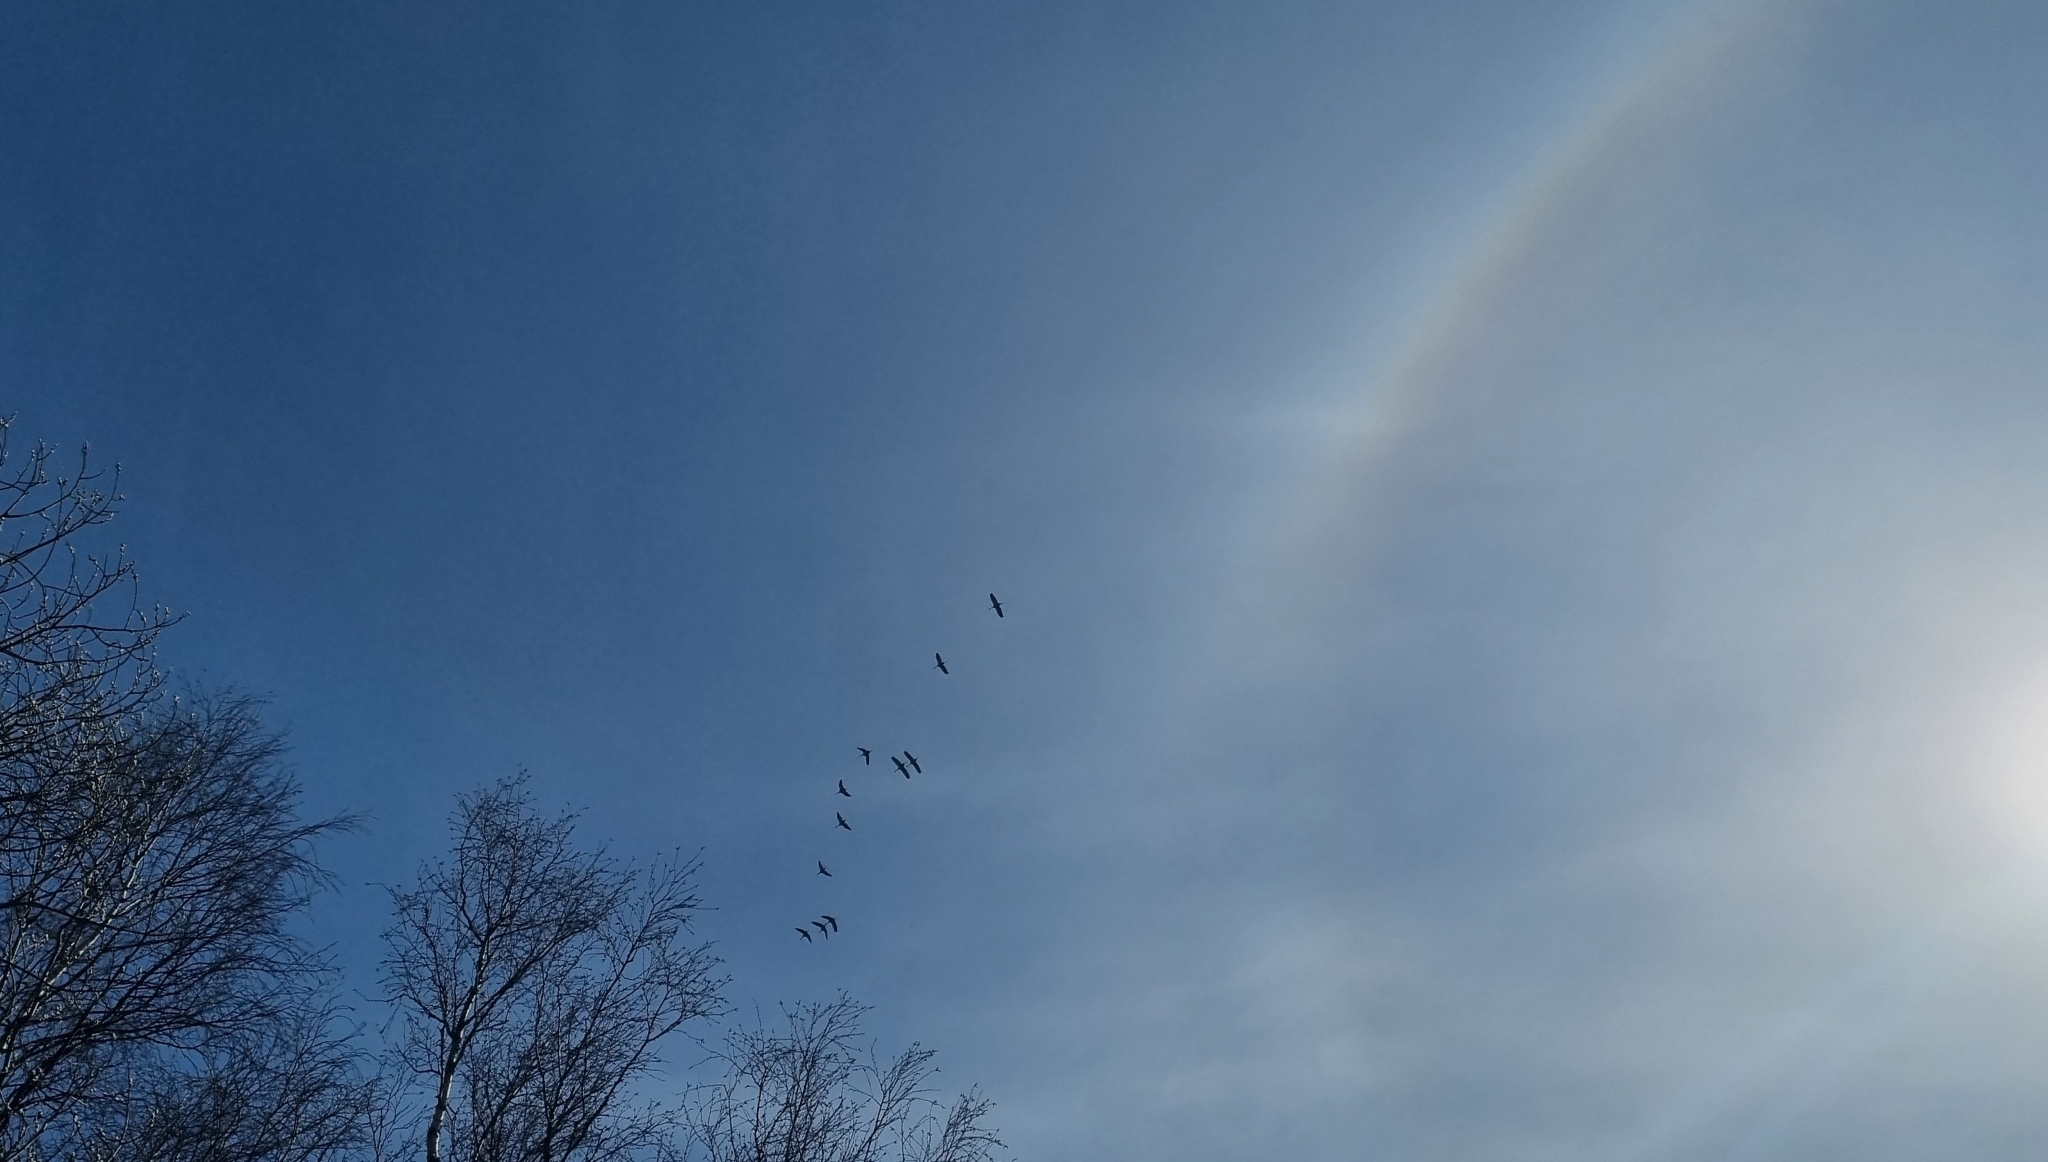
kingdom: Animalia
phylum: Chordata
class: Aves
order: Gruiformes
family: Gruidae
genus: Grus
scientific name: Grus grus
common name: Common crane
